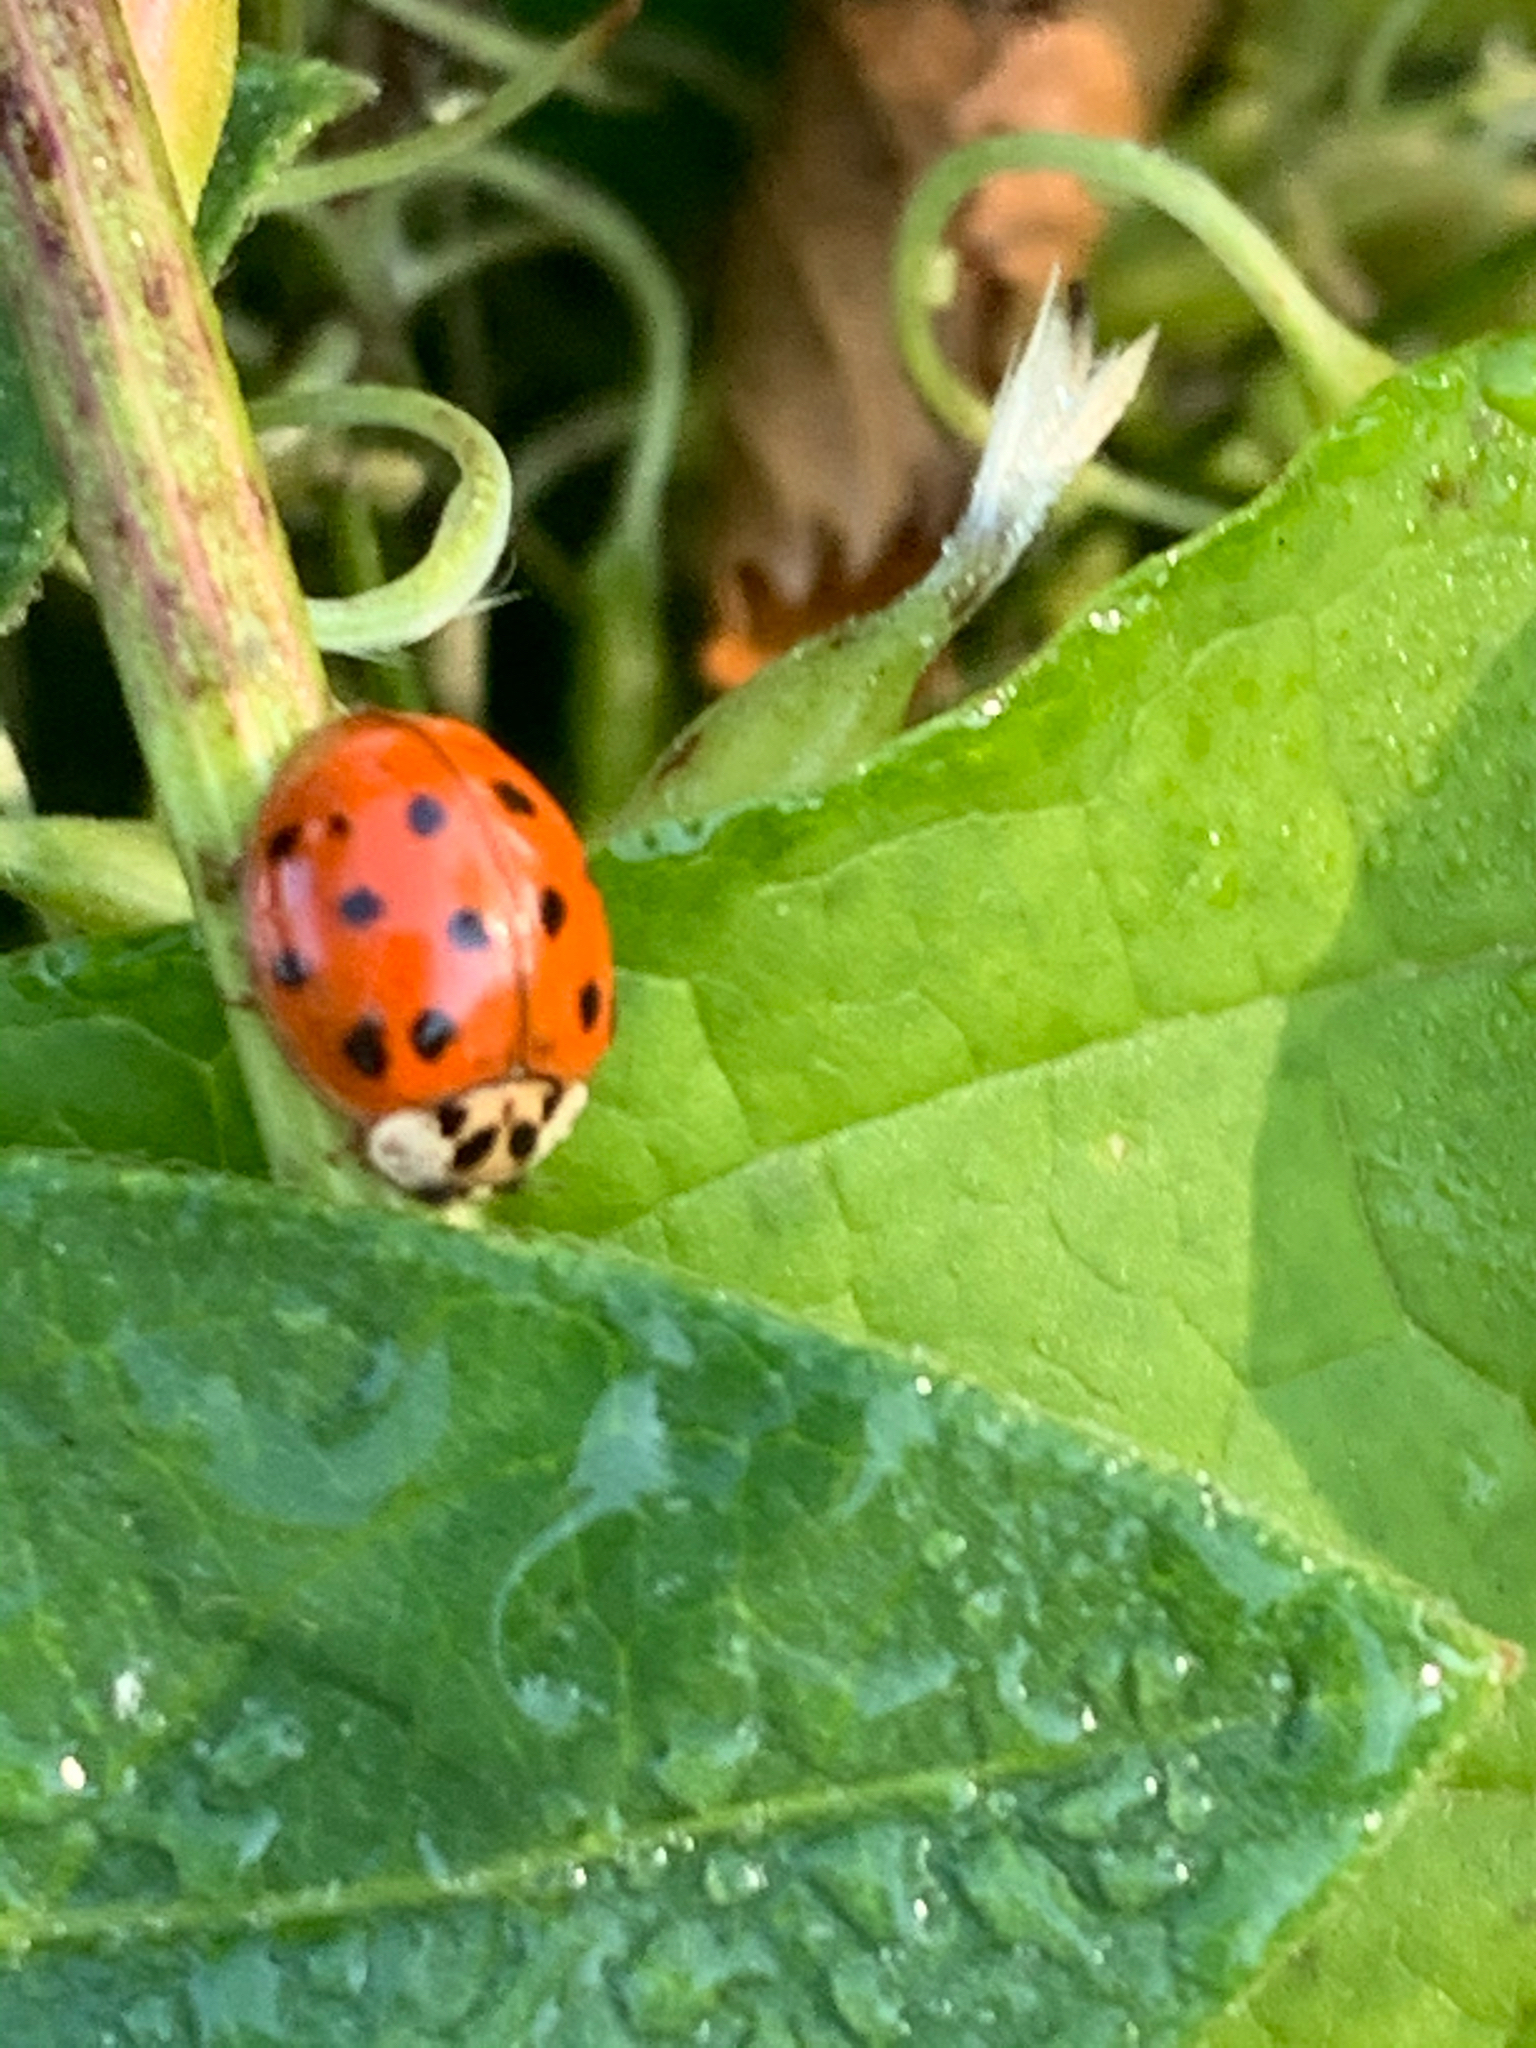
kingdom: Animalia
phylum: Arthropoda
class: Insecta
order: Coleoptera
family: Coccinellidae
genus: Harmonia
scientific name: Harmonia axyridis
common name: Harlequin ladybird
